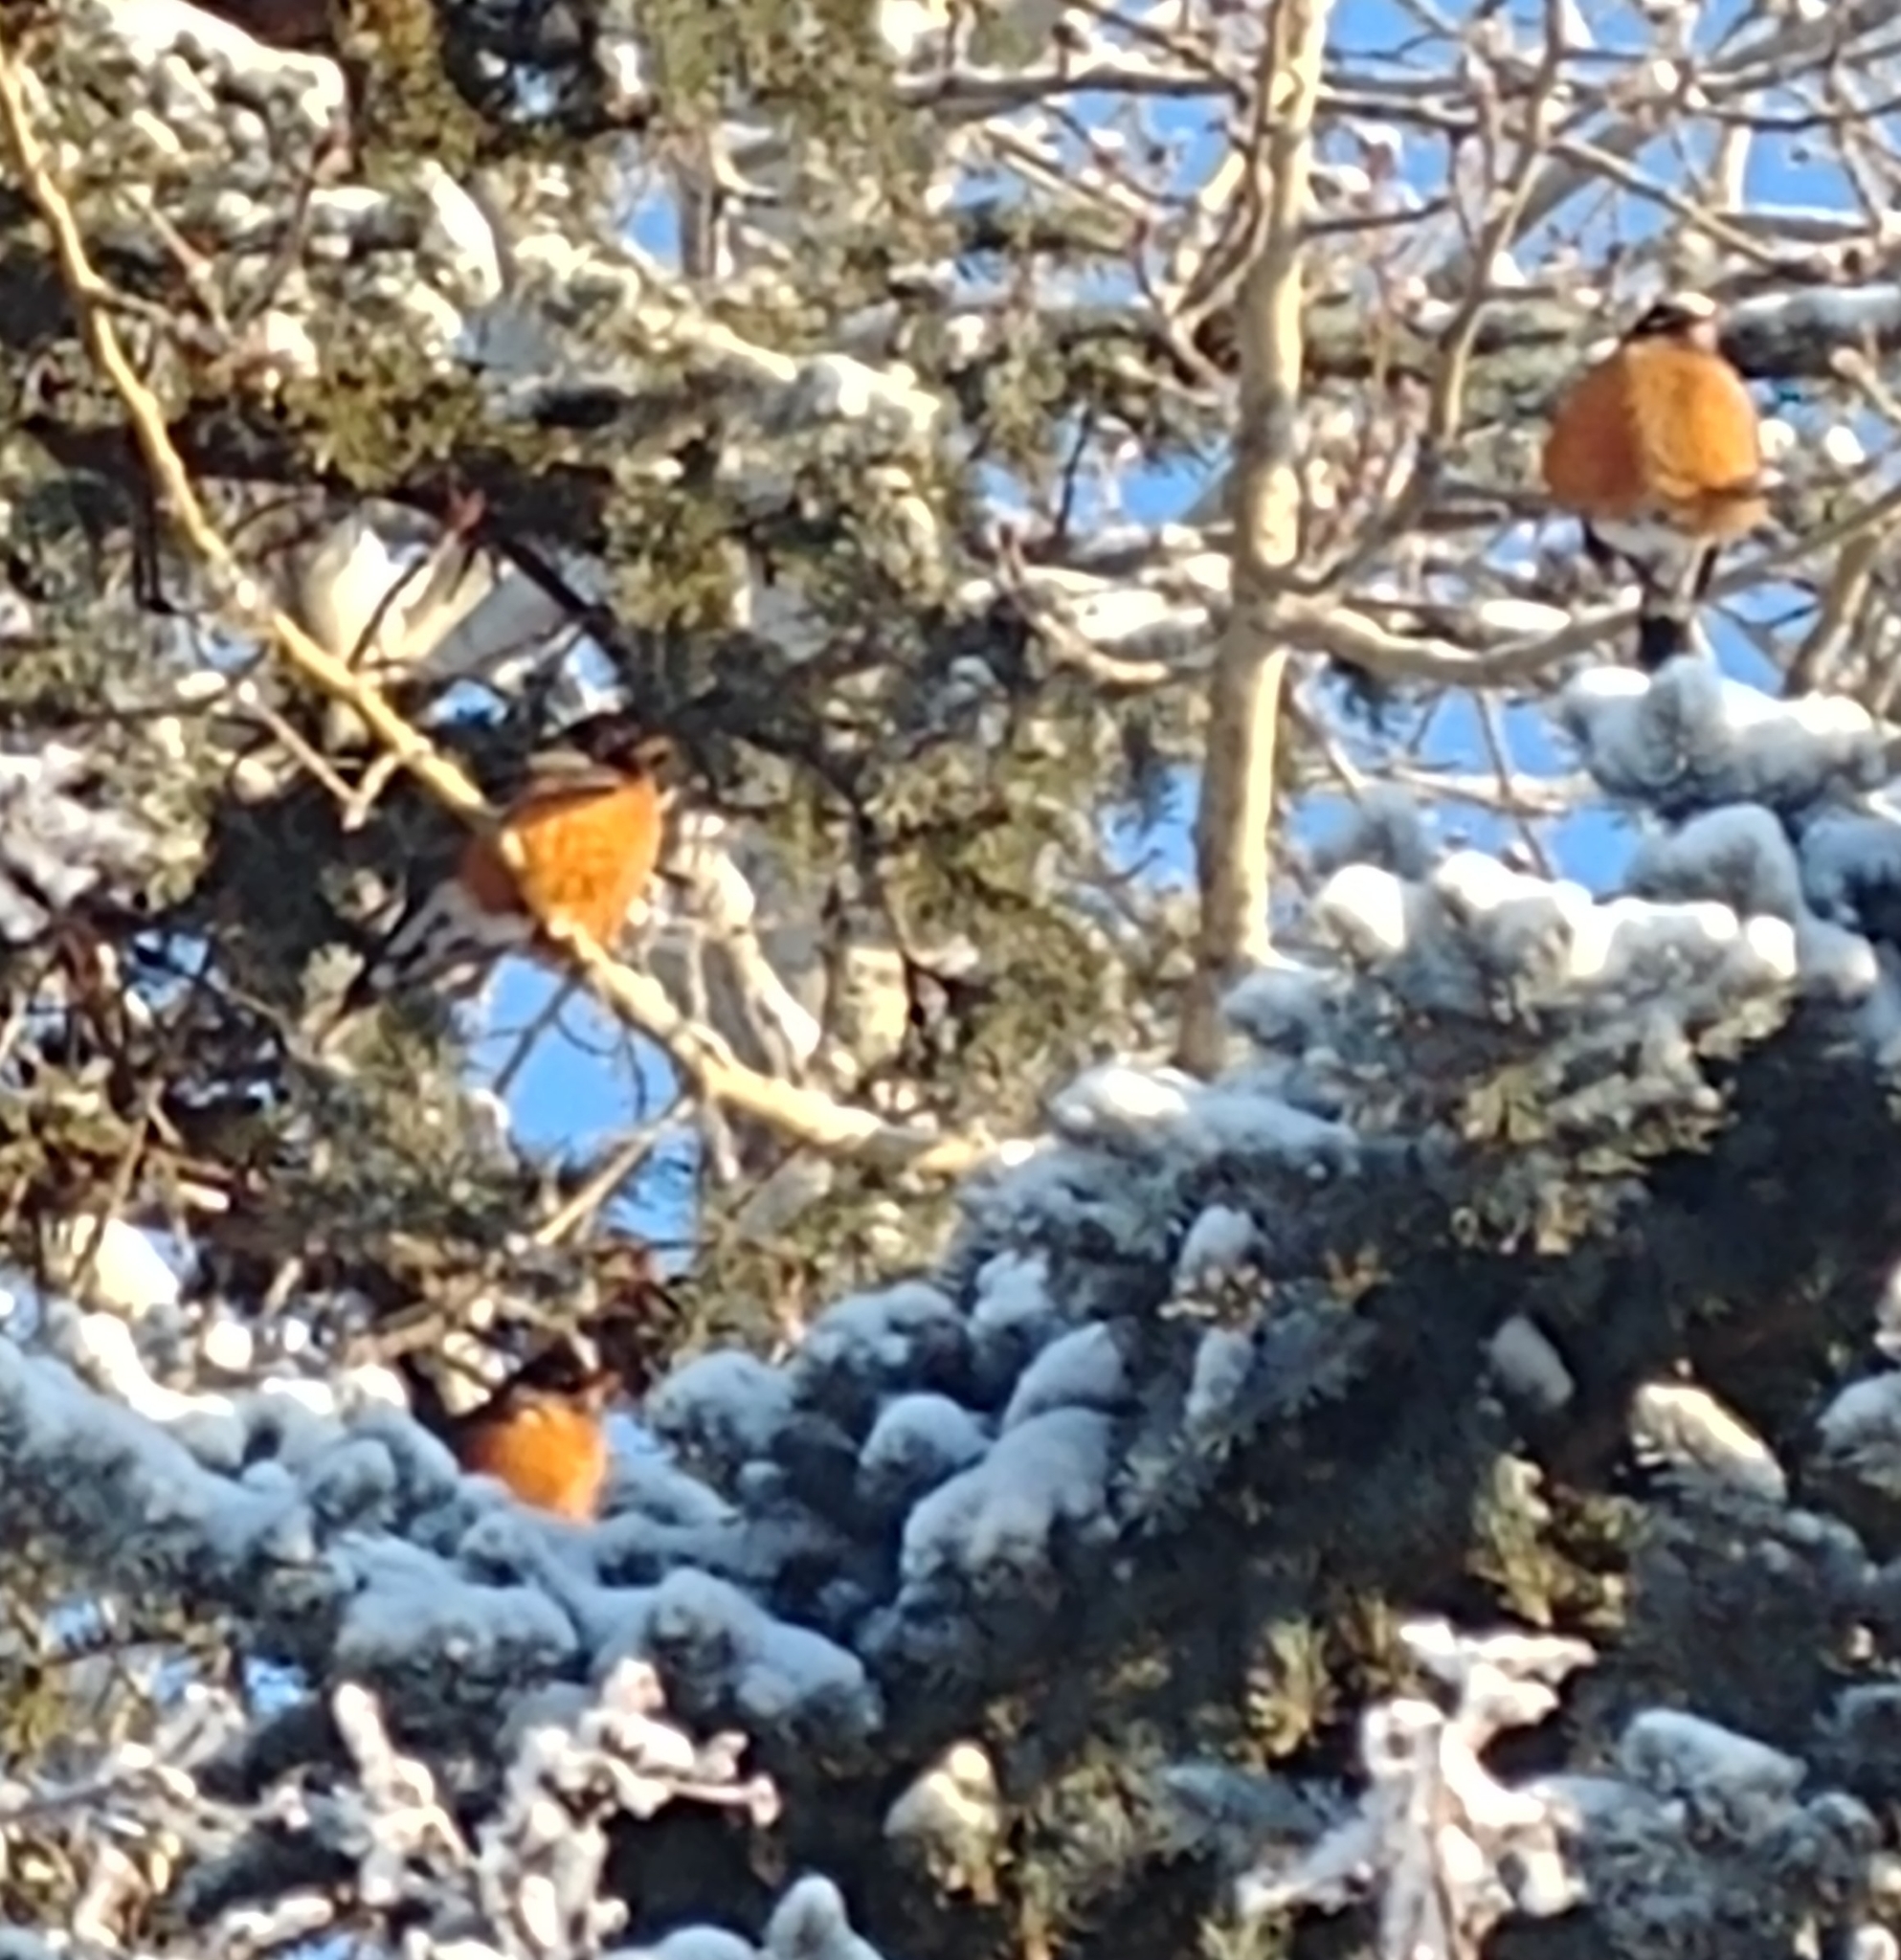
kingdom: Animalia
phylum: Chordata
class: Aves
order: Passeriformes
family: Turdidae
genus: Turdus
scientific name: Turdus migratorius
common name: American robin
